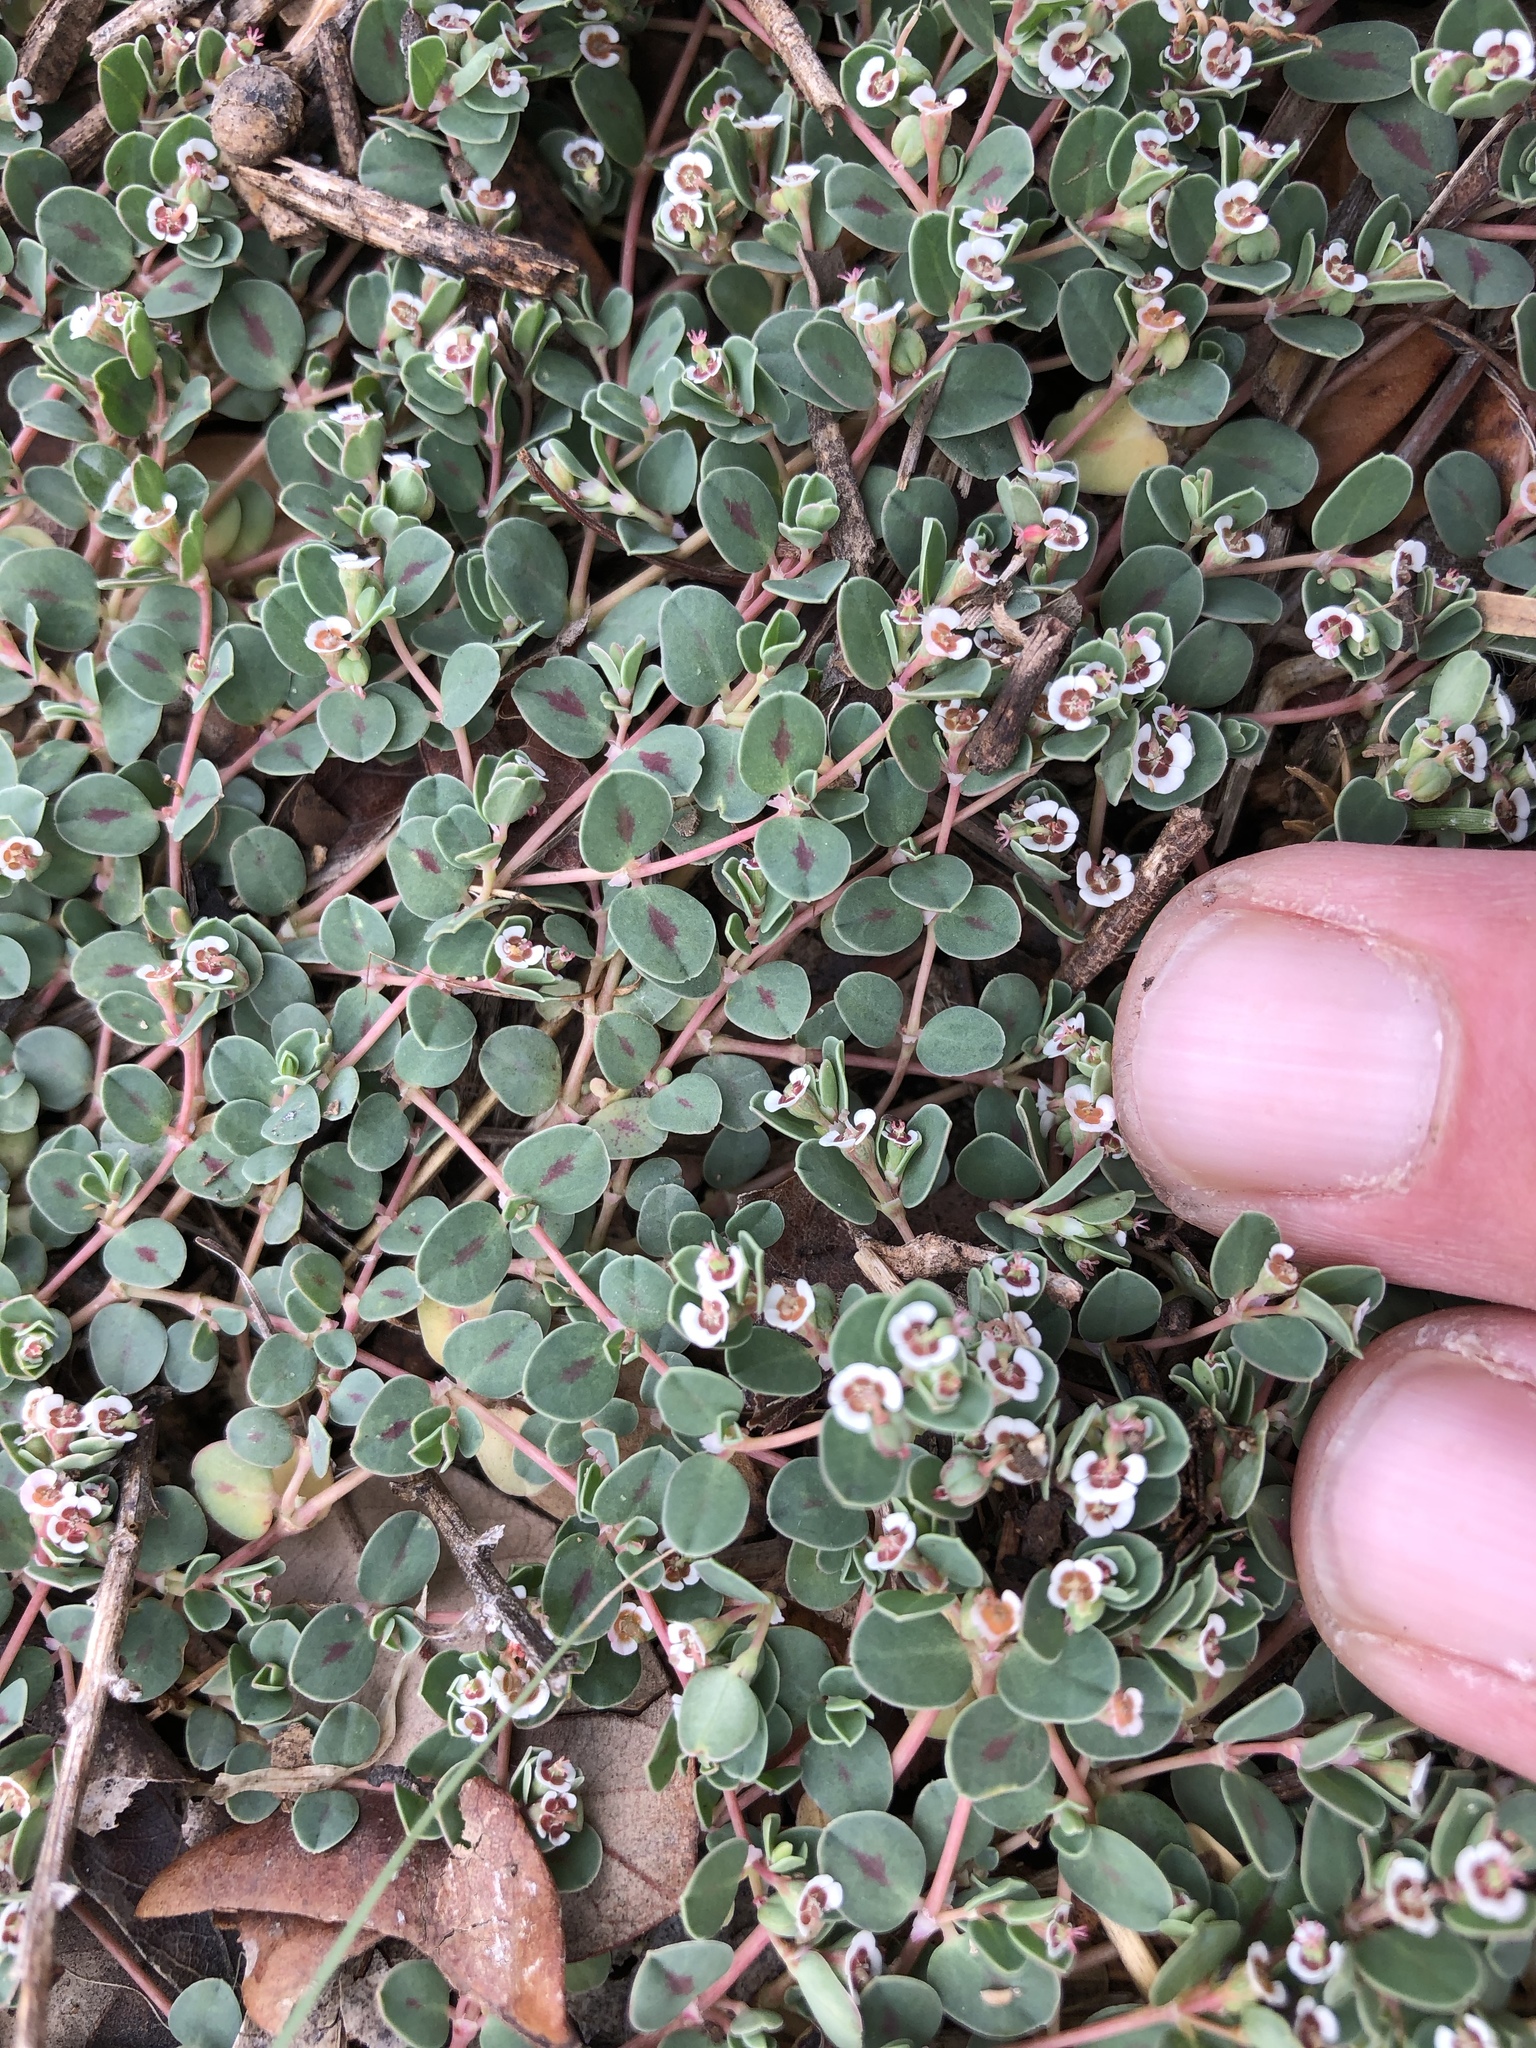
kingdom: Plantae
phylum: Tracheophyta
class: Magnoliopsida
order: Malpighiales
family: Euphorbiaceae
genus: Euphorbia
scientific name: Euphorbia albomarginata
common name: Whitemargin sandmat
